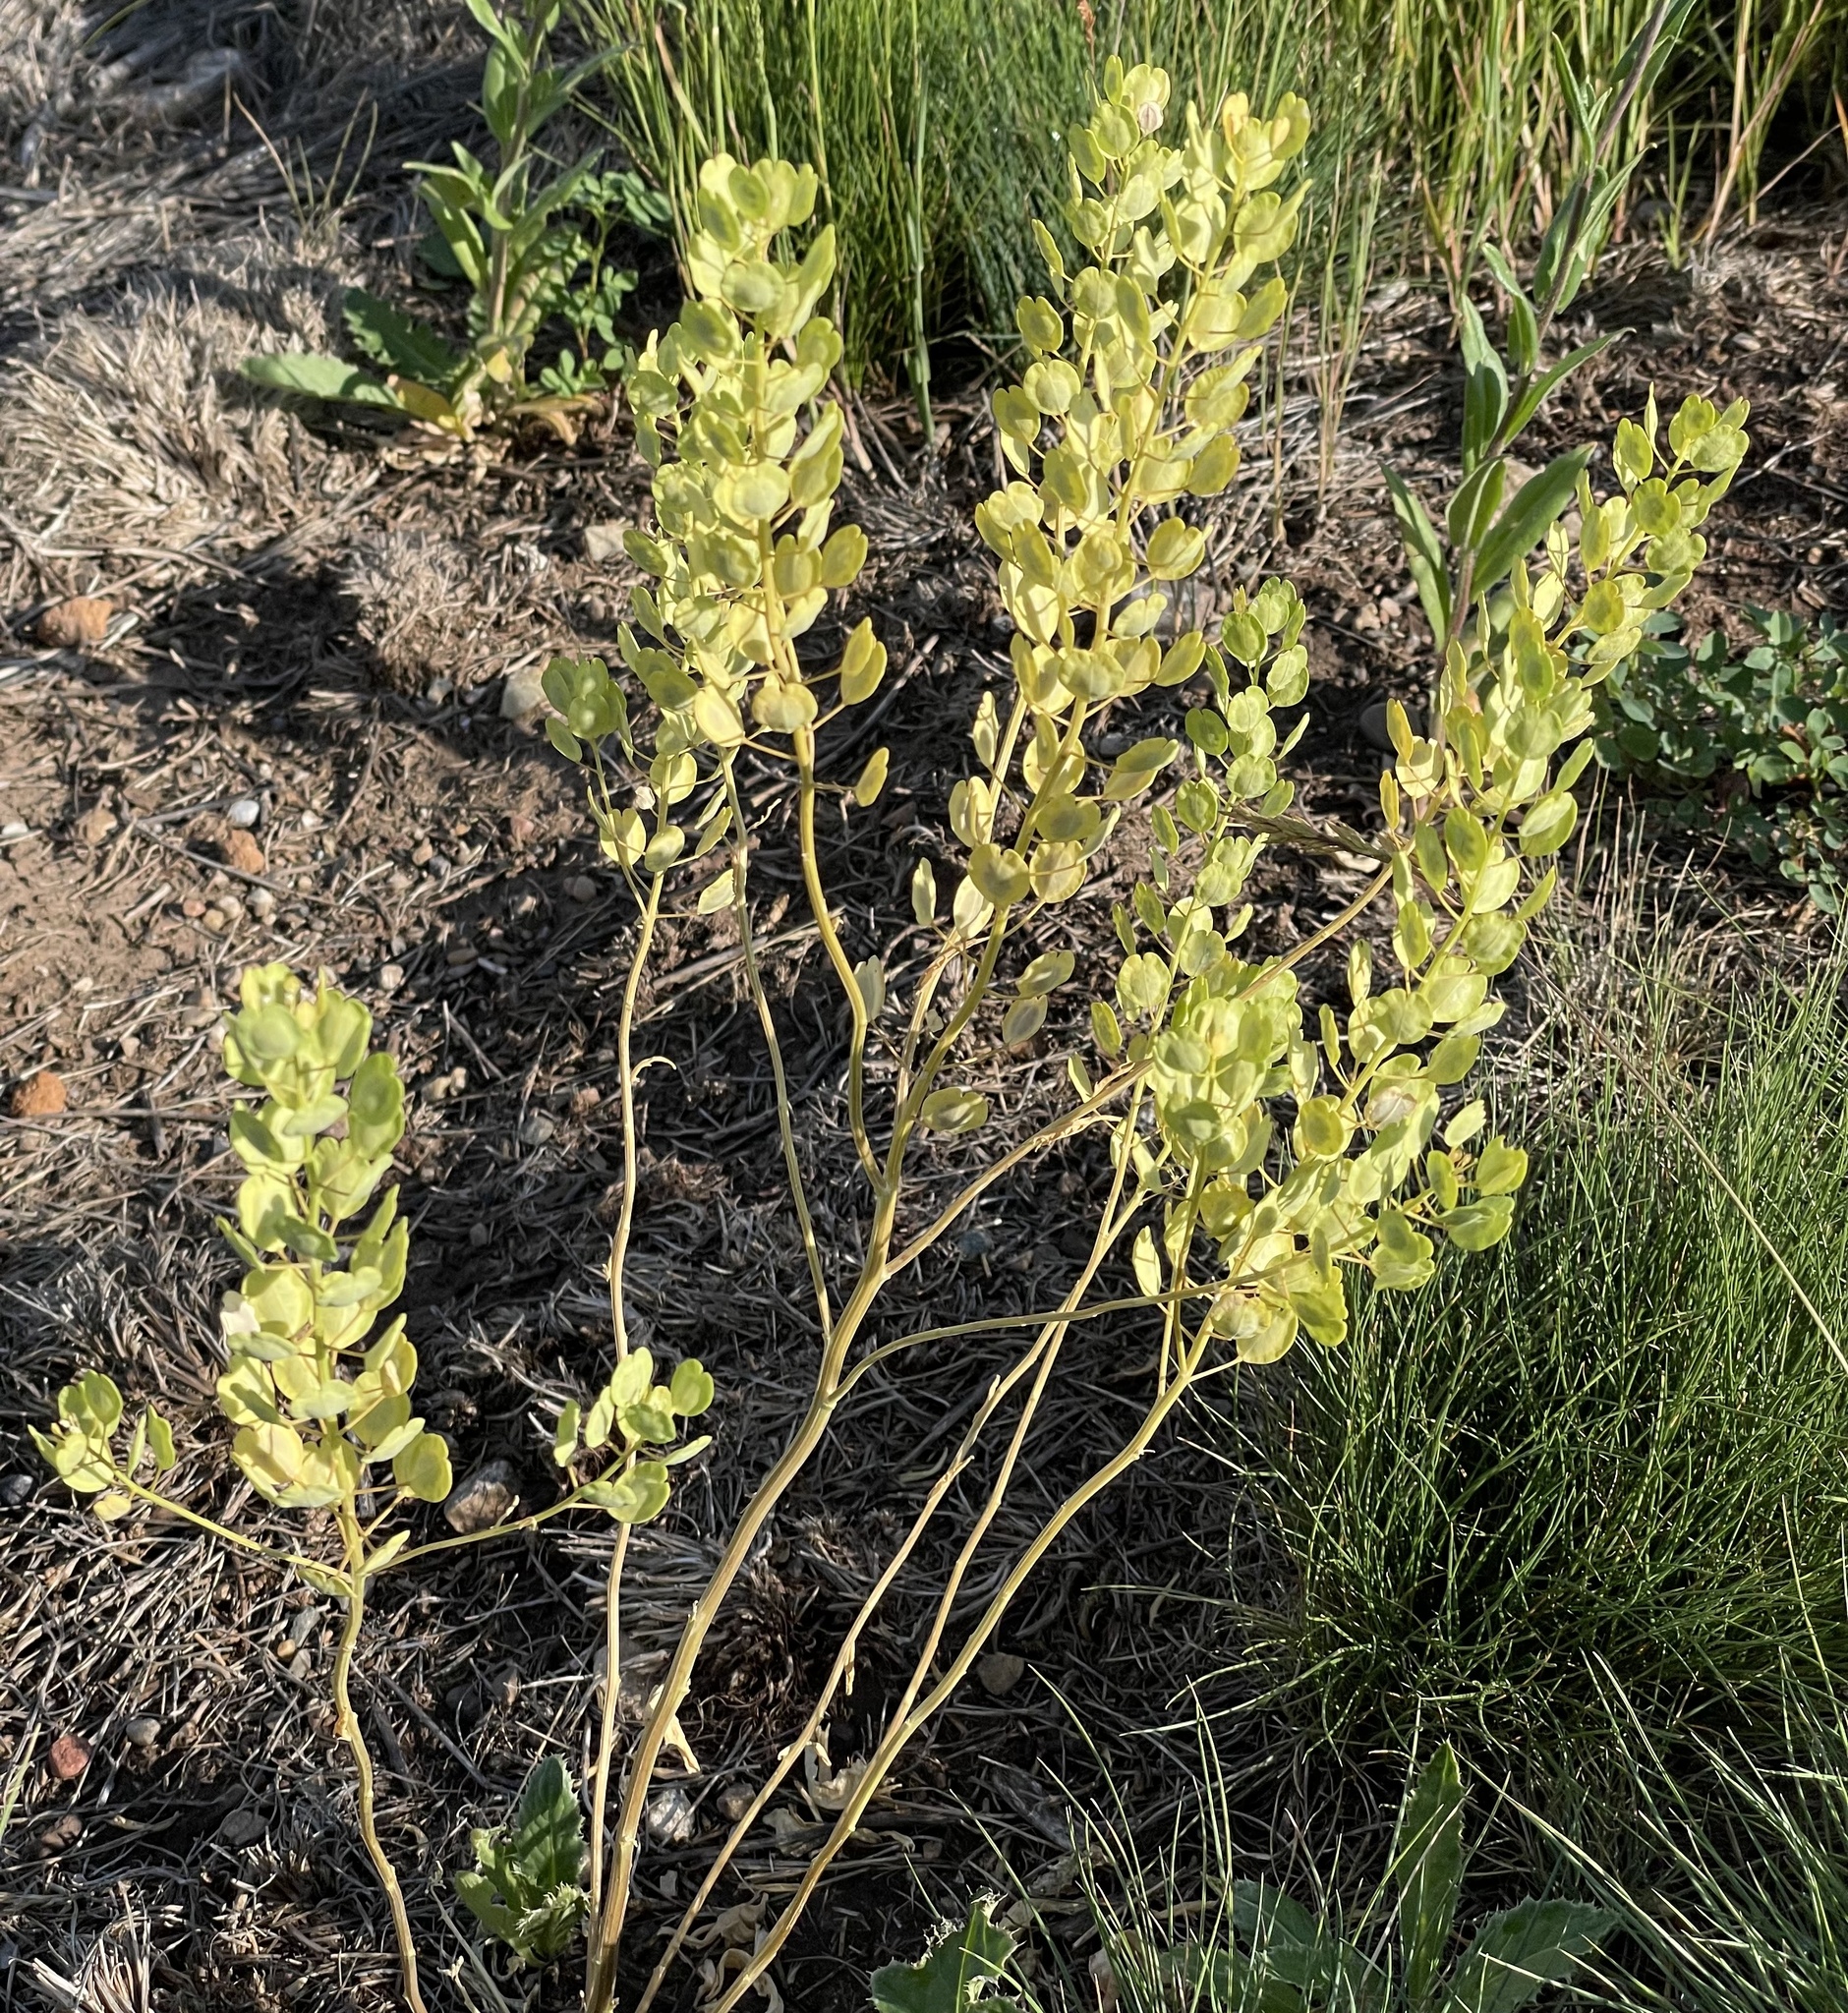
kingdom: Plantae
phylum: Tracheophyta
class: Magnoliopsida
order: Brassicales
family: Brassicaceae
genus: Thlaspi
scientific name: Thlaspi arvense
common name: Field pennycress
